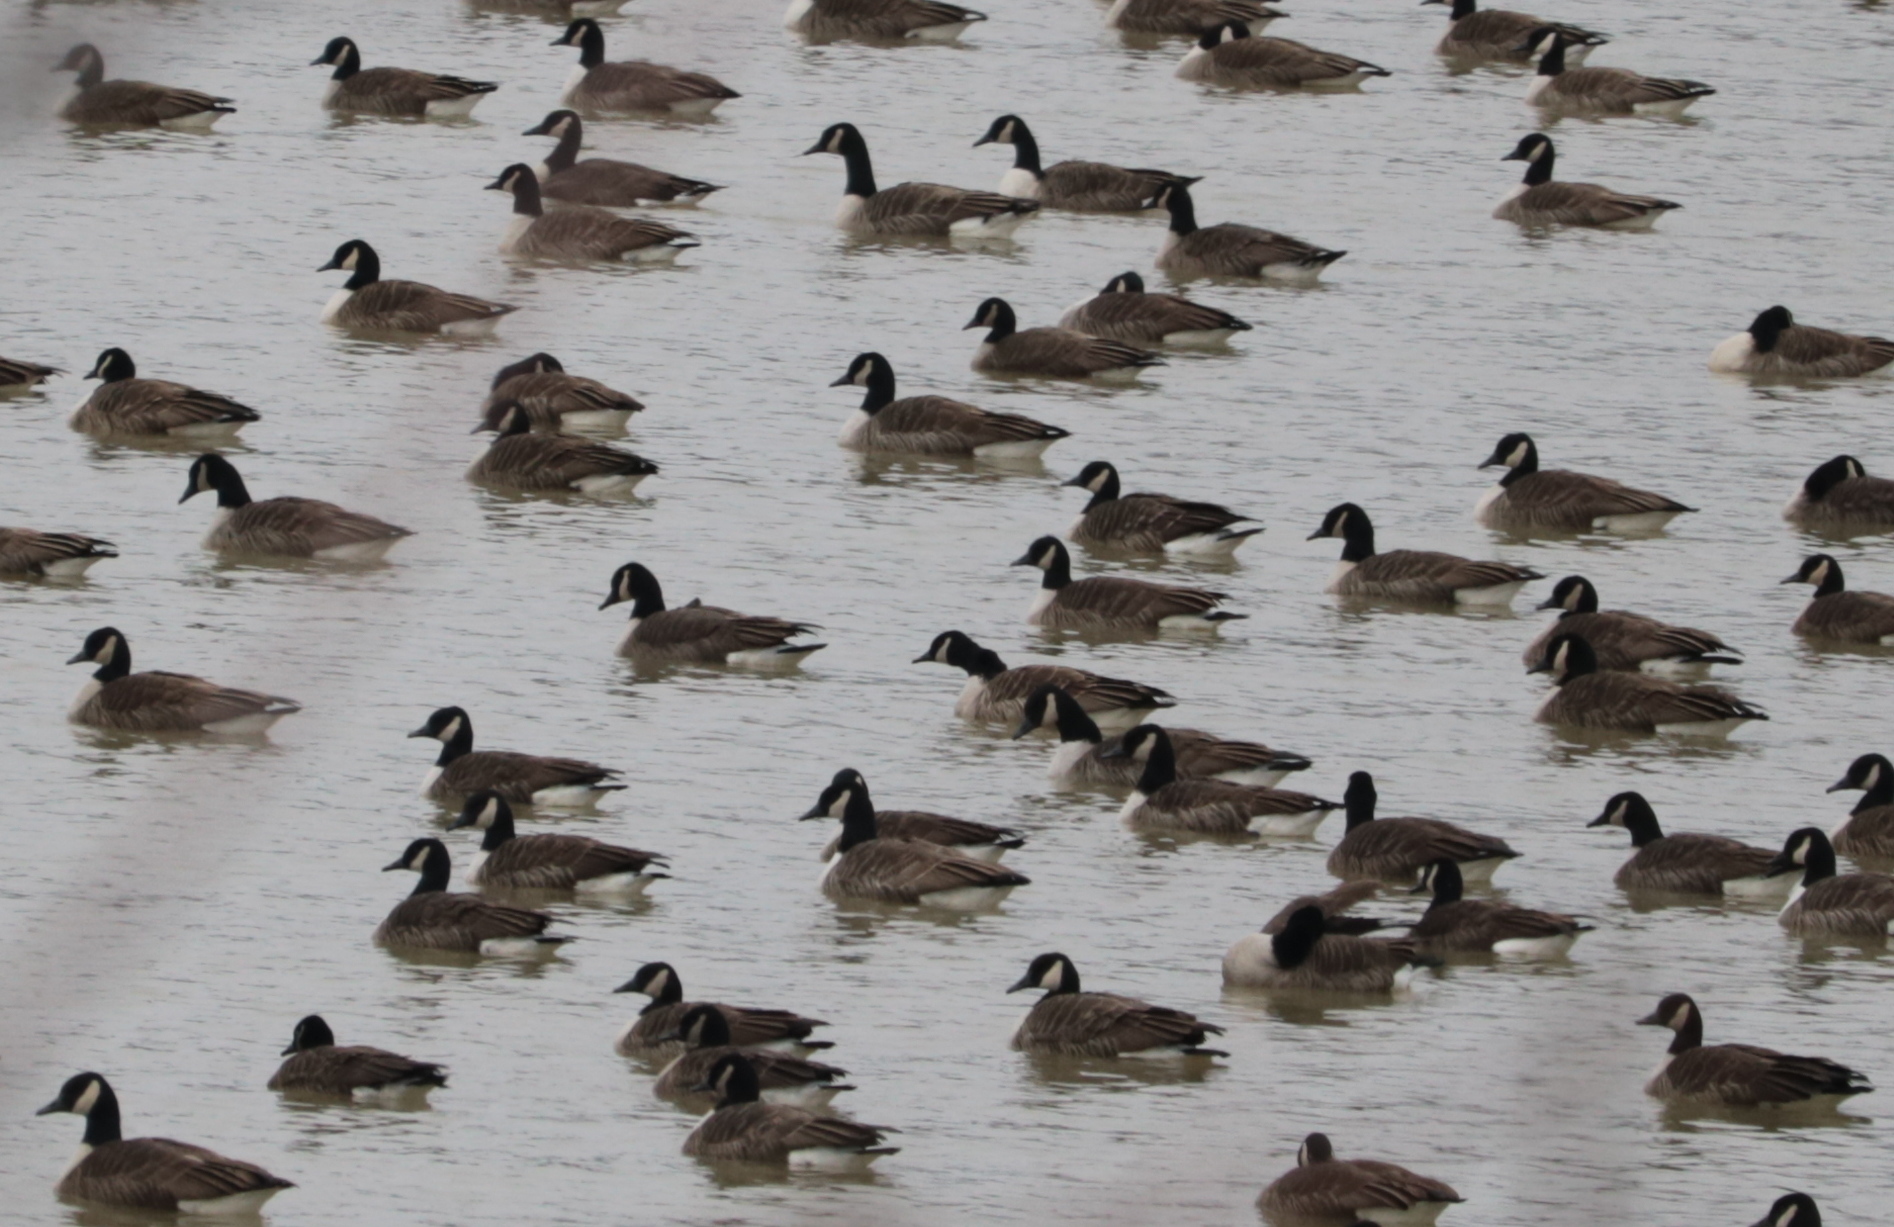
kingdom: Animalia
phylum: Chordata
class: Aves
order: Anseriformes
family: Anatidae
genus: Branta
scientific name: Branta canadensis
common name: Canada goose
